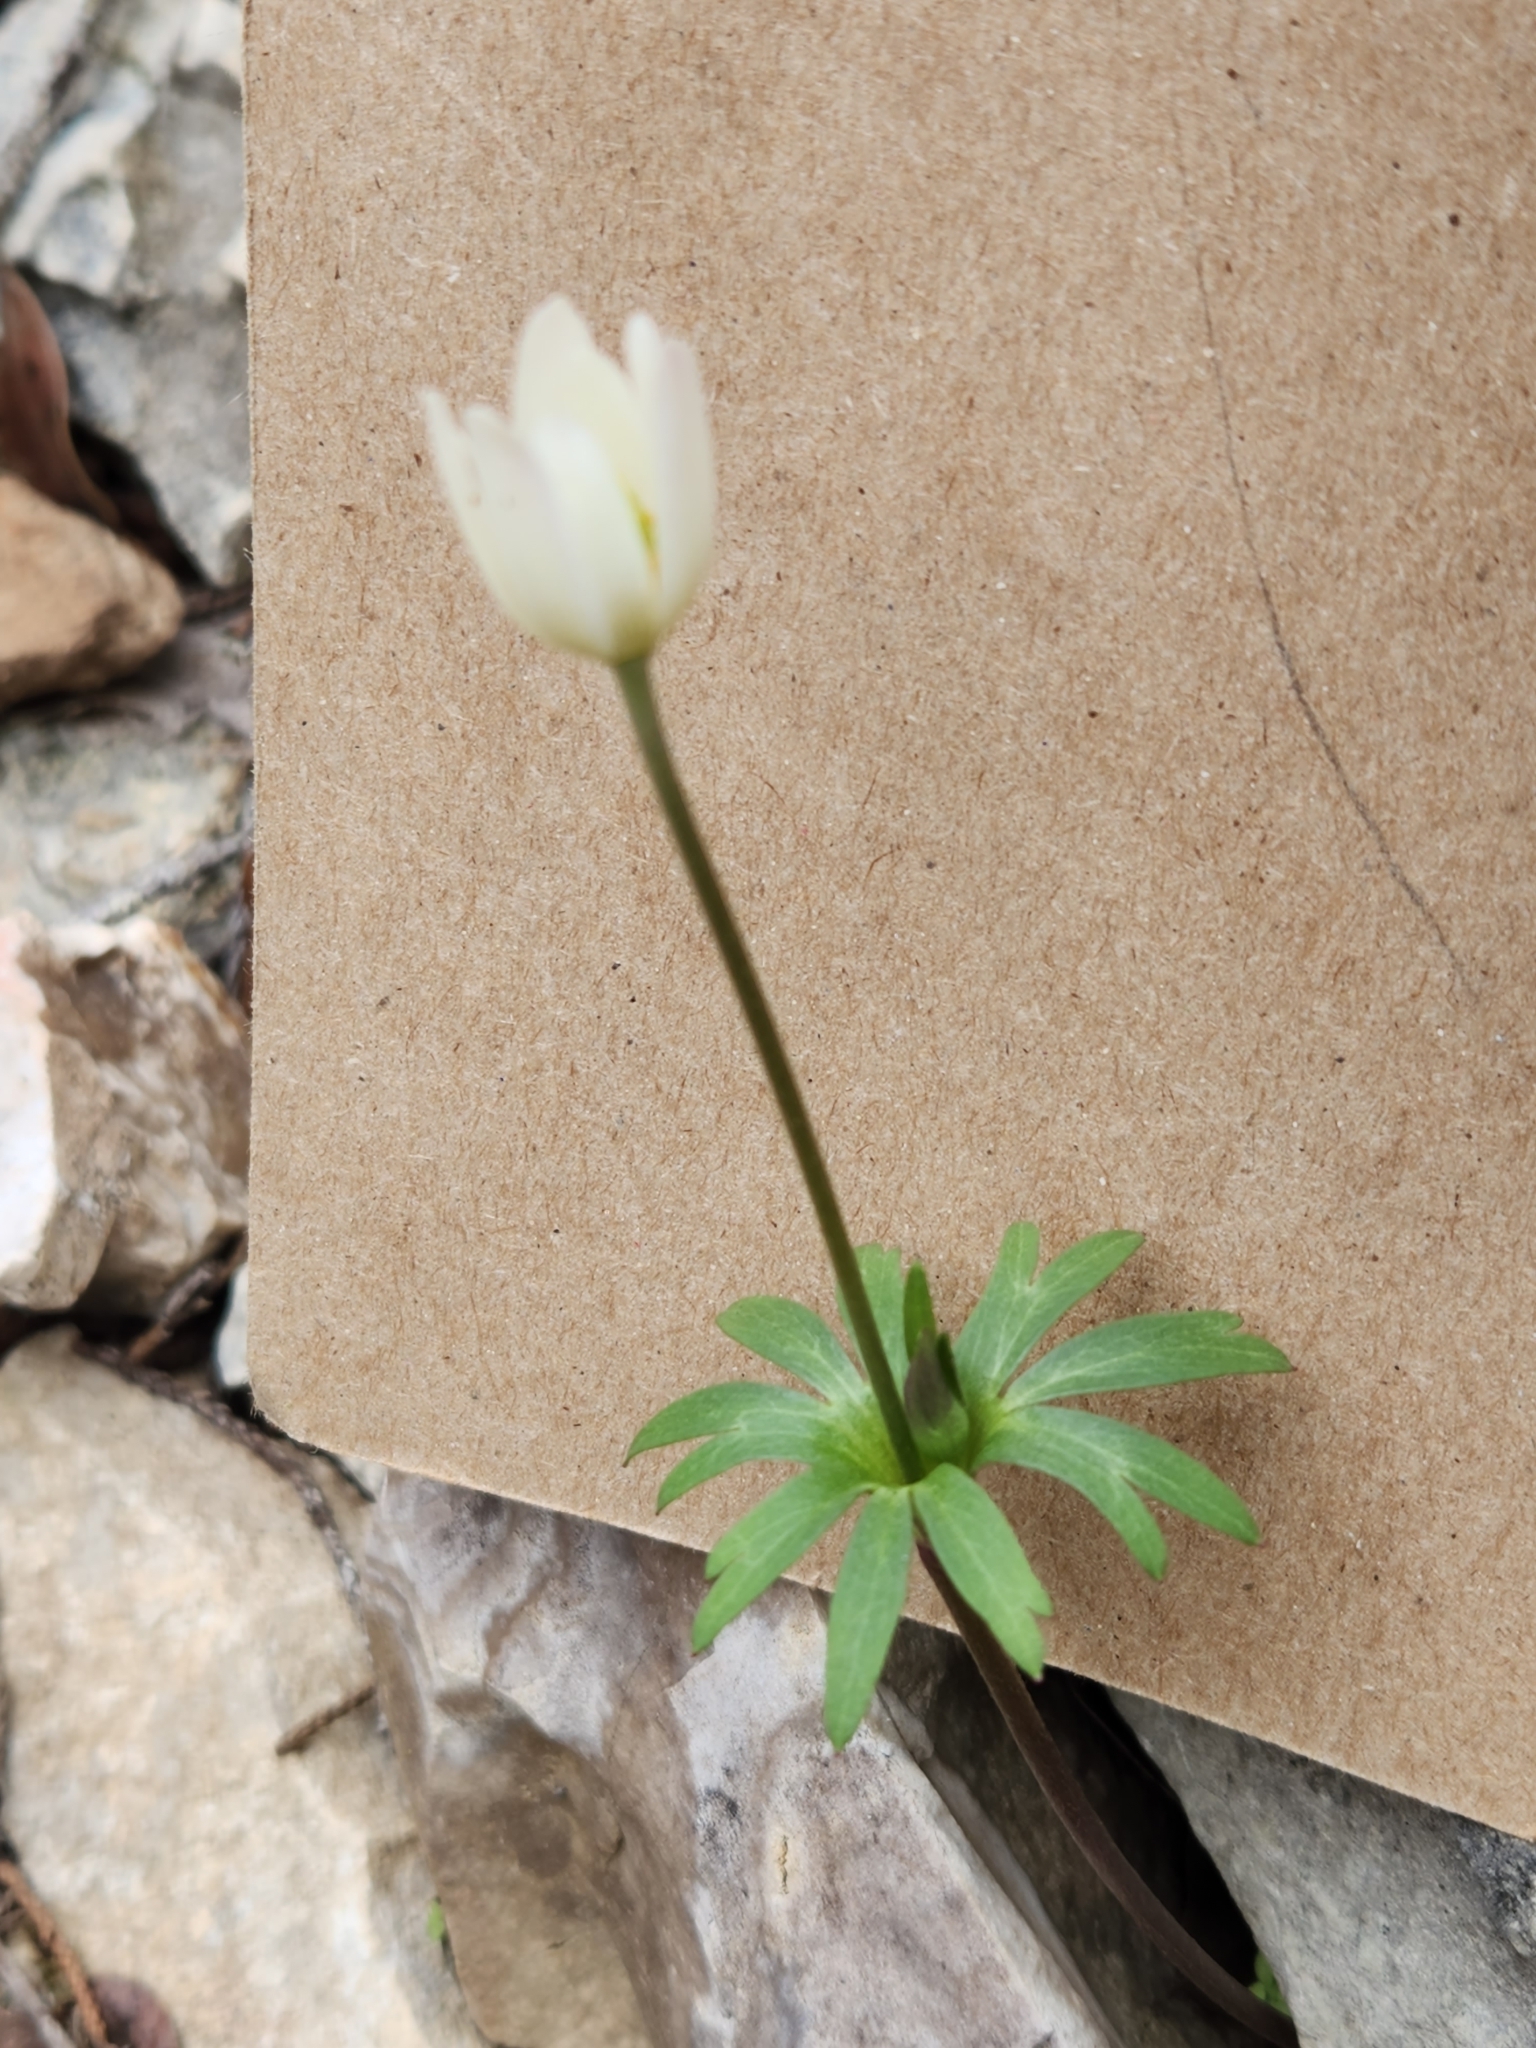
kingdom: Plantae
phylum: Tracheophyta
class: Magnoliopsida
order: Ranunculales
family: Ranunculaceae
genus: Anemone
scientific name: Anemone edwardsiana
